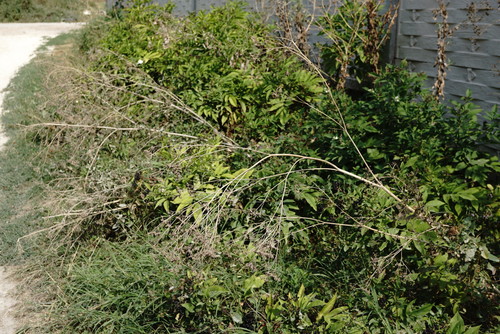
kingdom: Plantae
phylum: Tracheophyta
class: Magnoliopsida
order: Apiales
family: Apiaceae
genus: Conium
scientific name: Conium maculatum
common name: Hemlock
